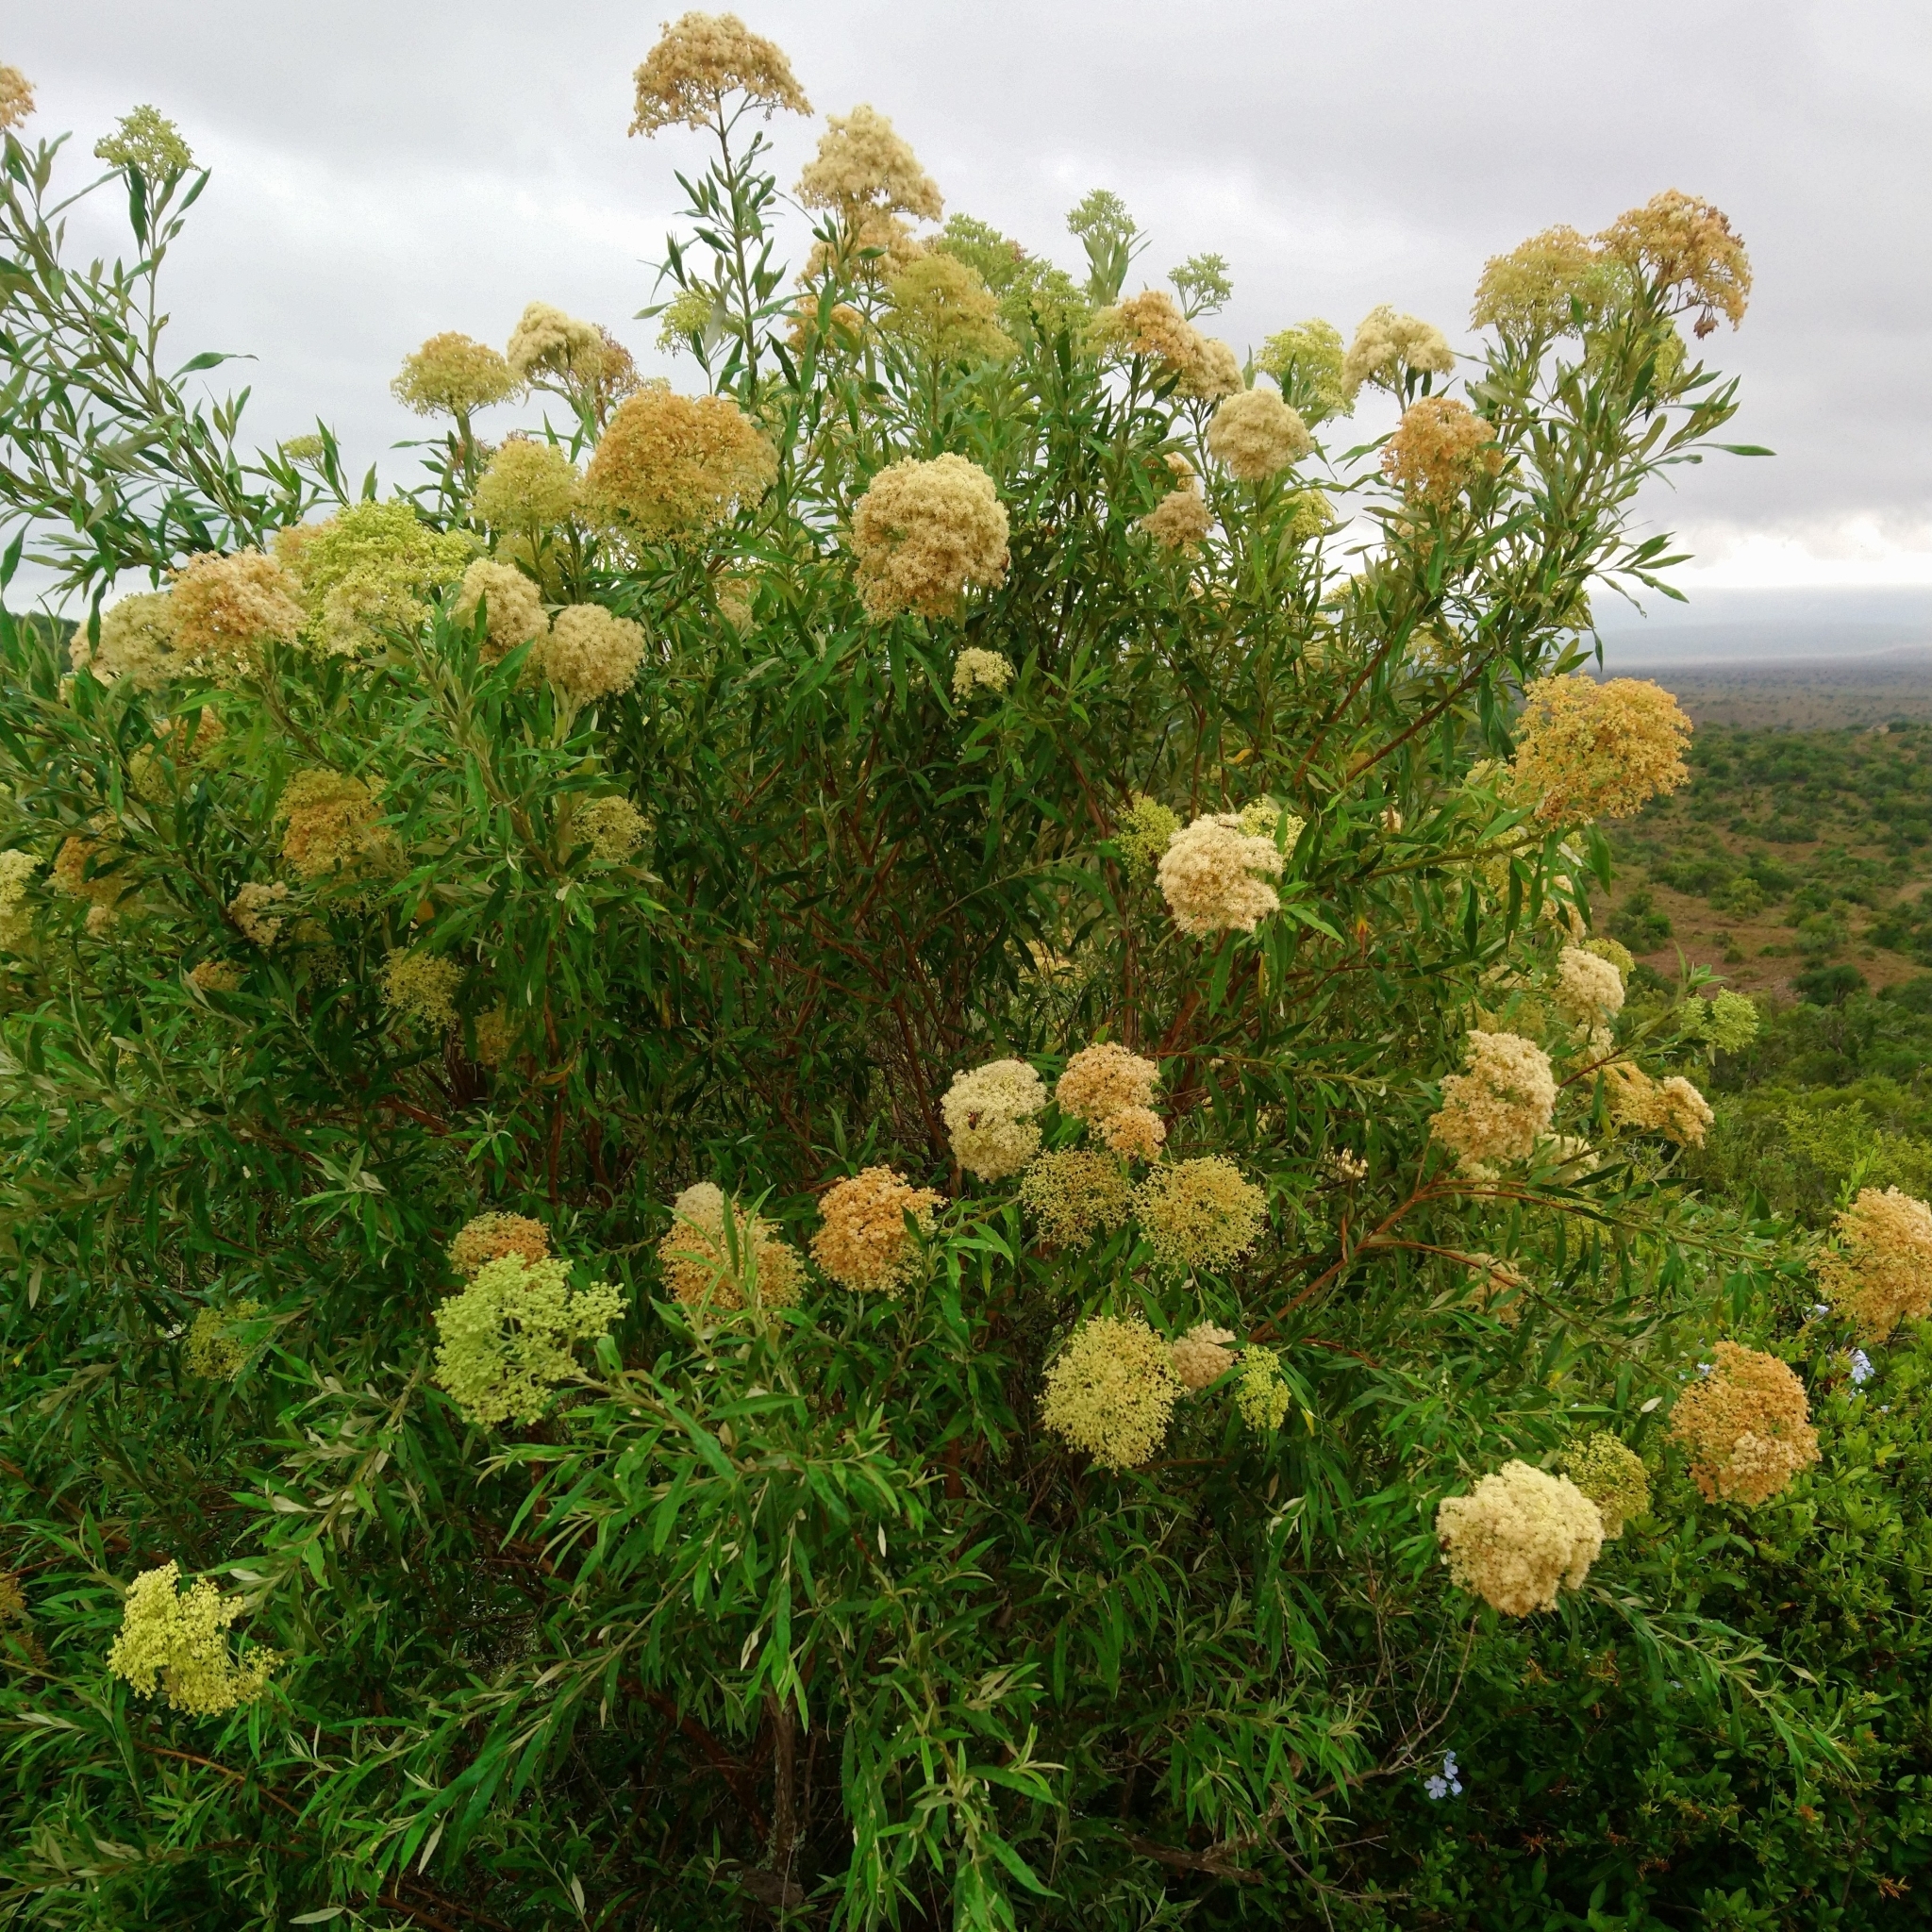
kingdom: Plantae
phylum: Tracheophyta
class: Magnoliopsida
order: Lamiales
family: Scrophulariaceae
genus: Buddleja
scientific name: Buddleja saligna
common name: False olive
